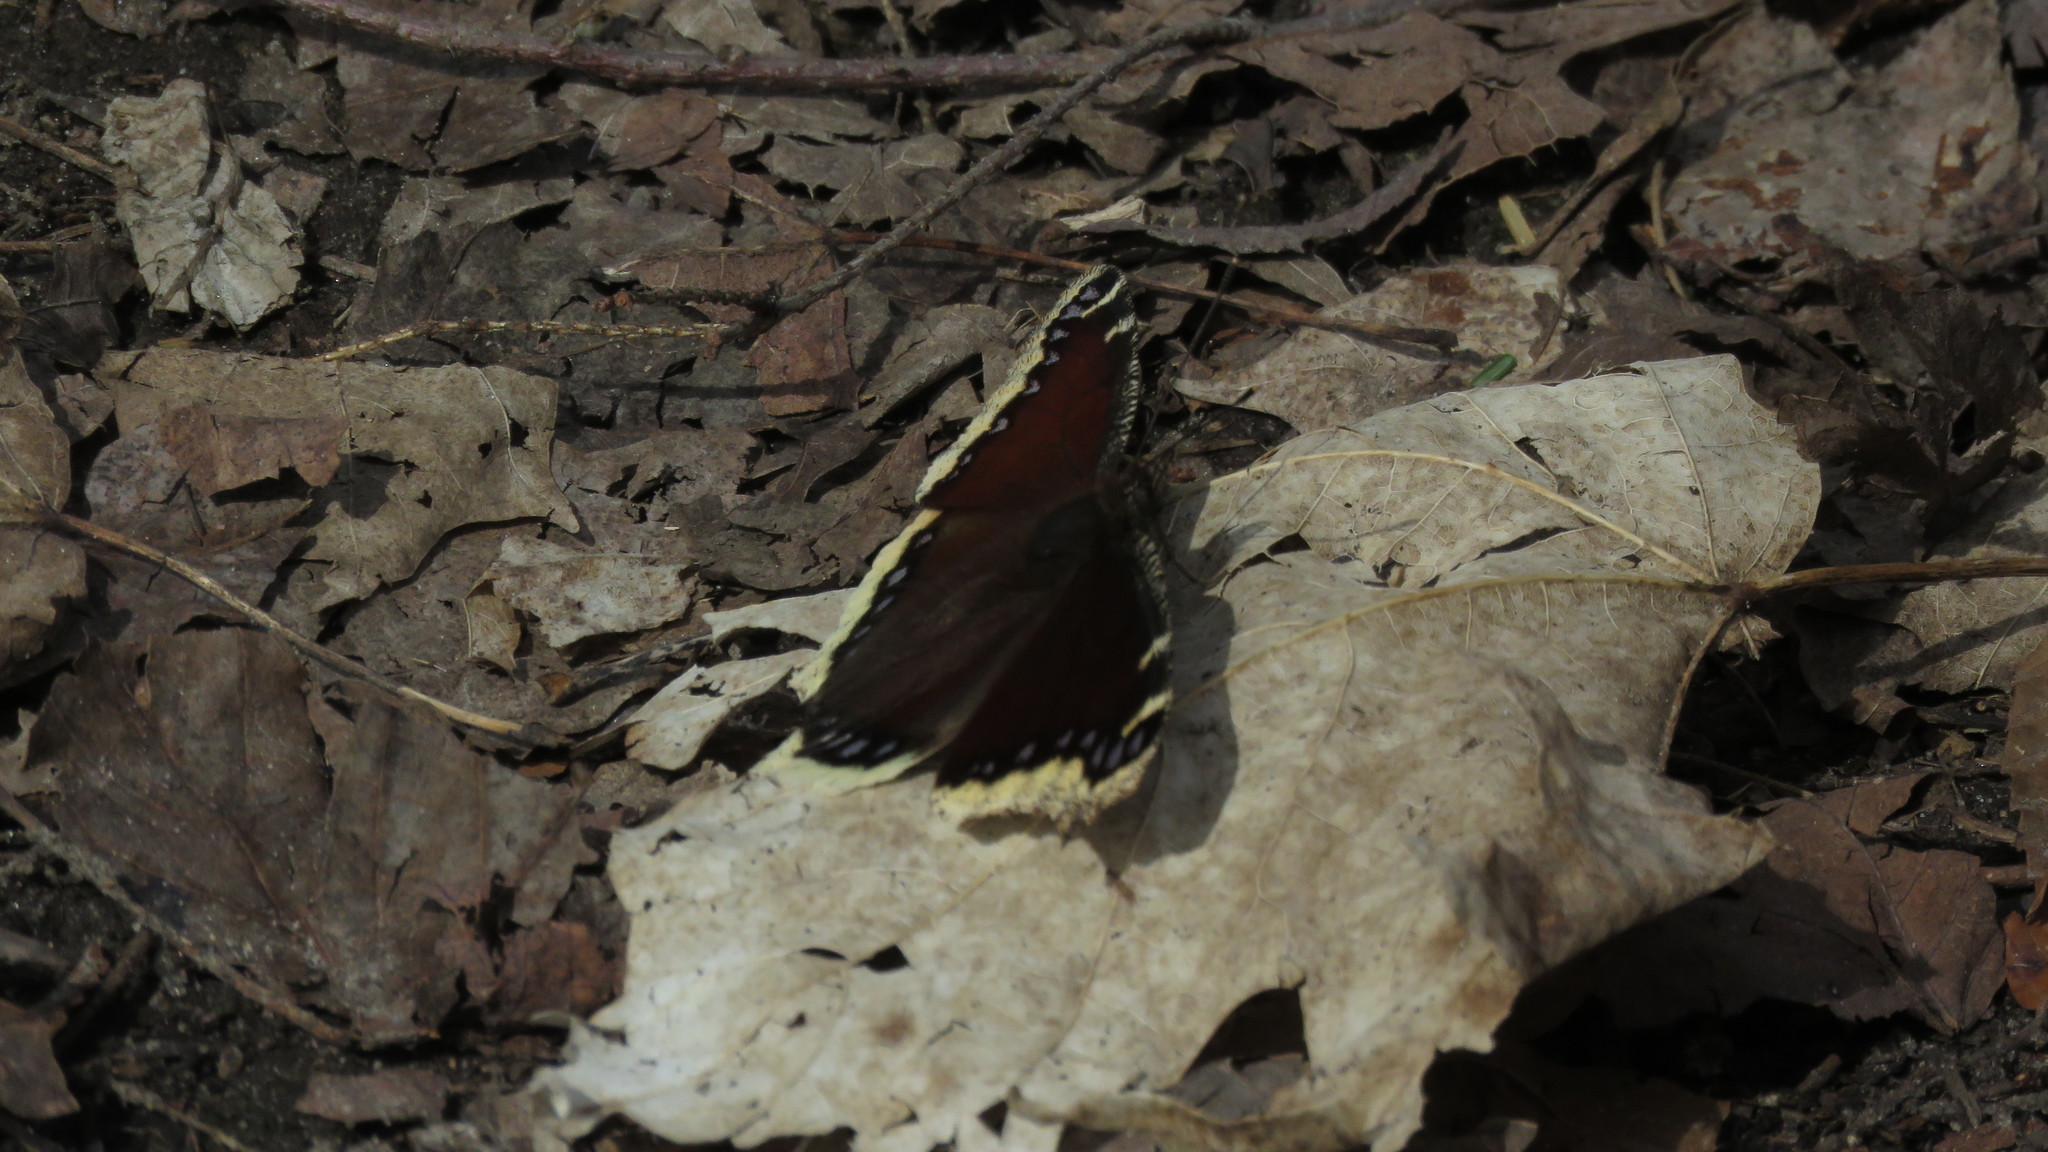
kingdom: Animalia
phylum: Arthropoda
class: Insecta
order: Lepidoptera
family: Nymphalidae
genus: Nymphalis
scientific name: Nymphalis antiopa
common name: Camberwell beauty
